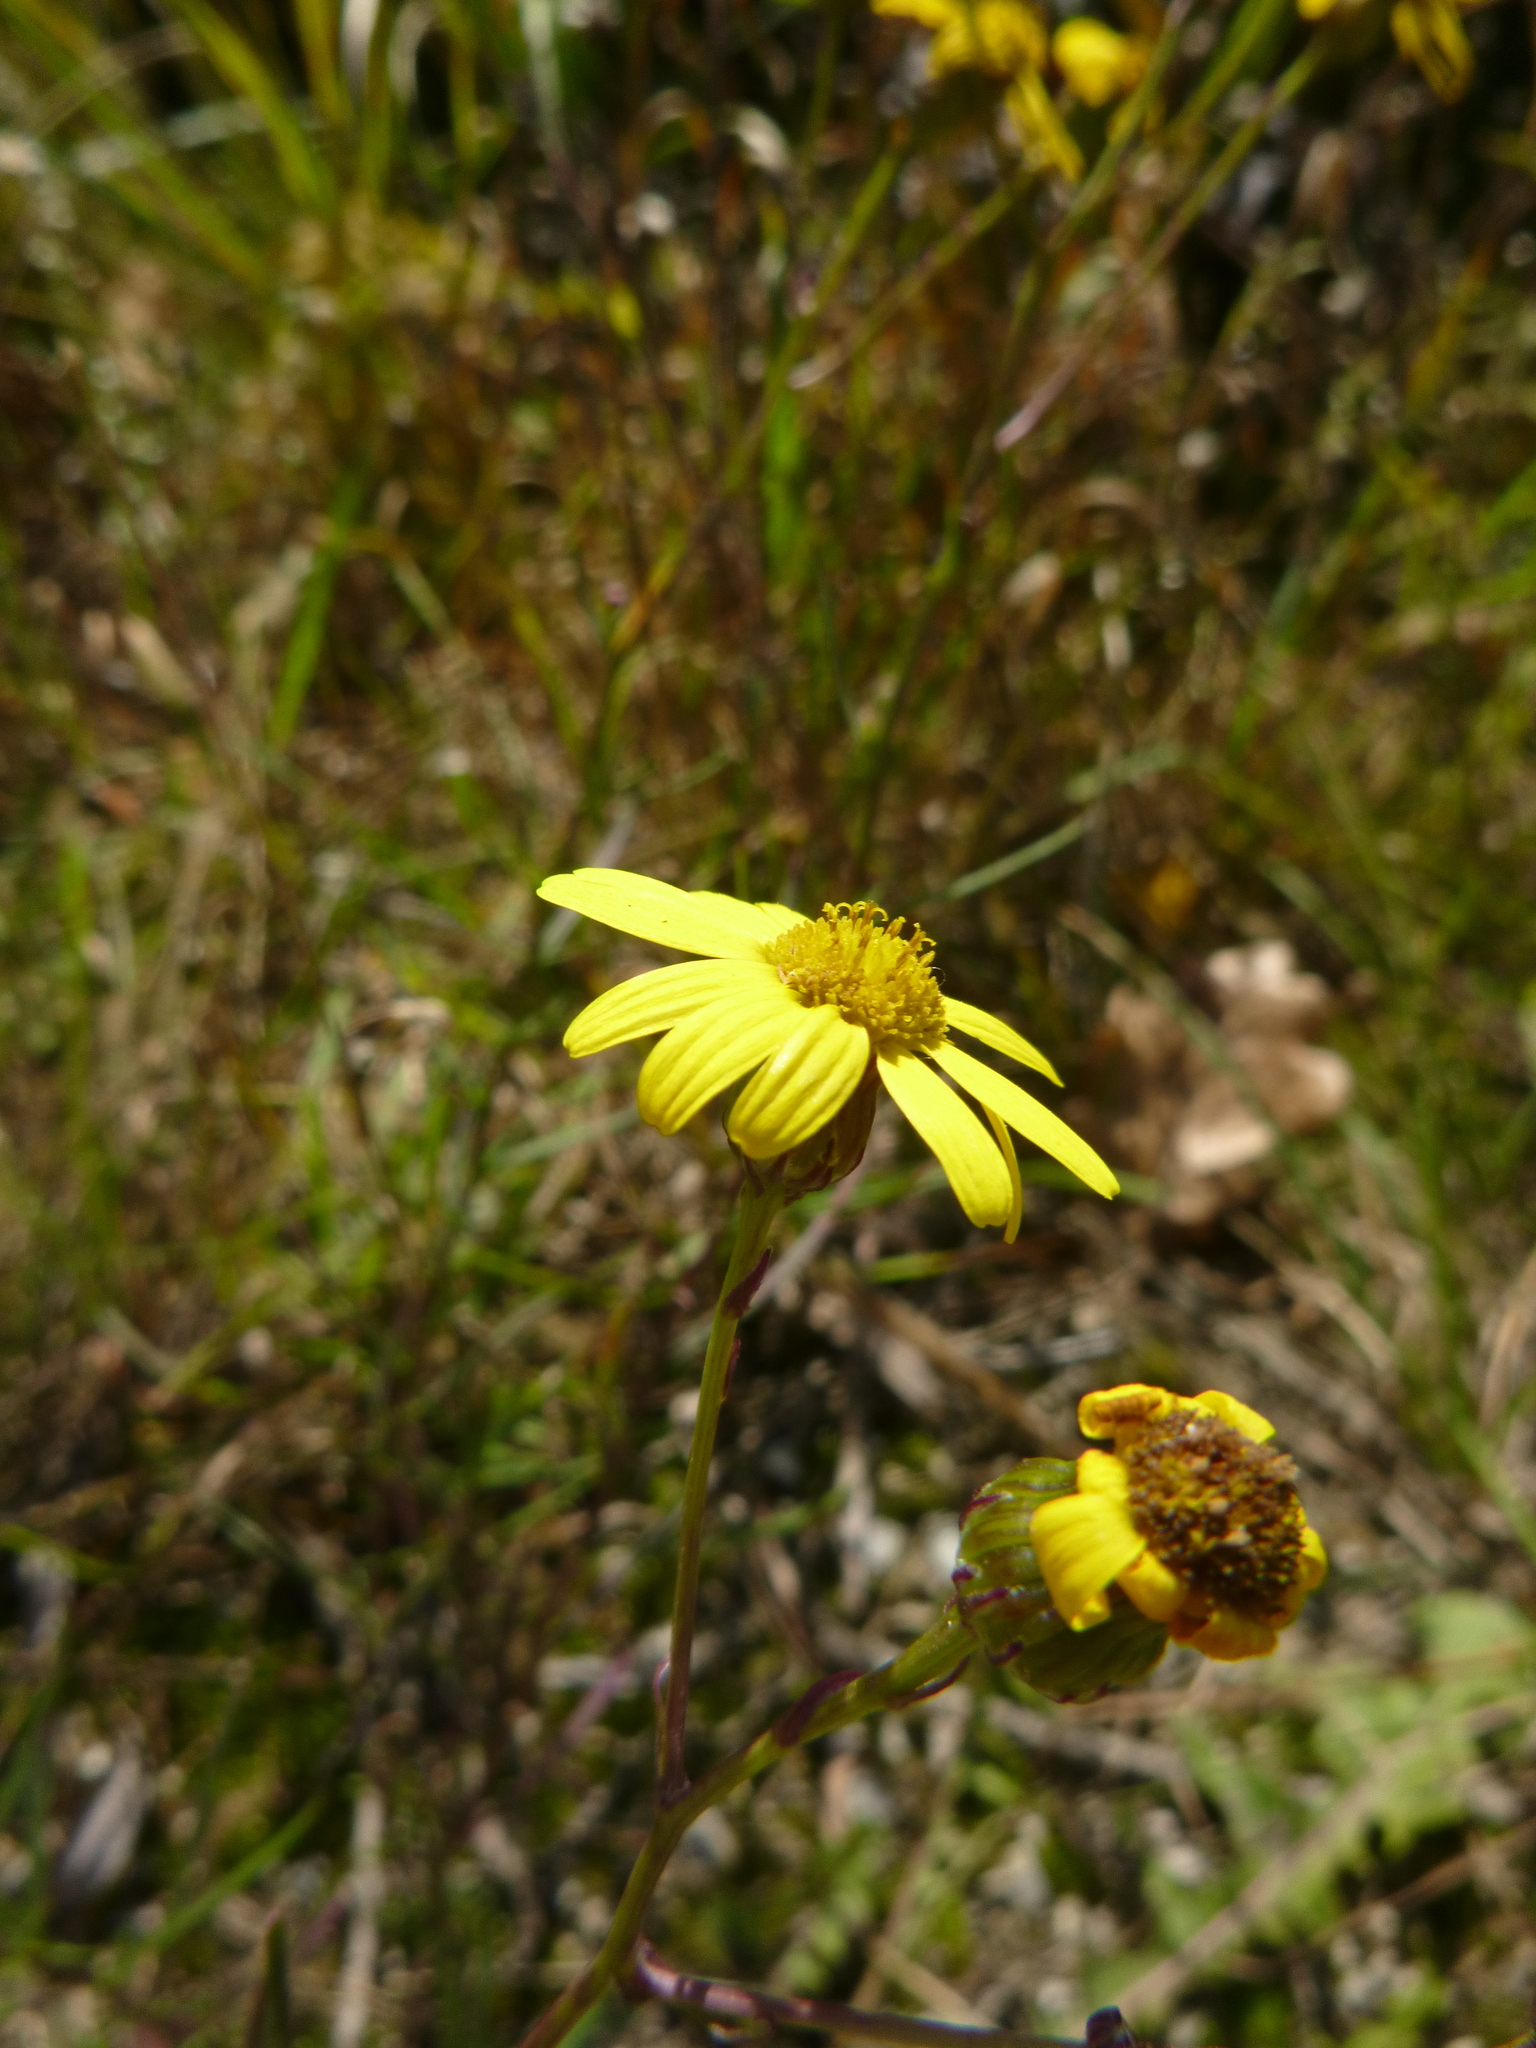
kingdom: Plantae
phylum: Tracheophyta
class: Magnoliopsida
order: Asterales
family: Asteraceae
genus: Senecio
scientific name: Senecio inaequidens
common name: Narrow-leaved ragwort
